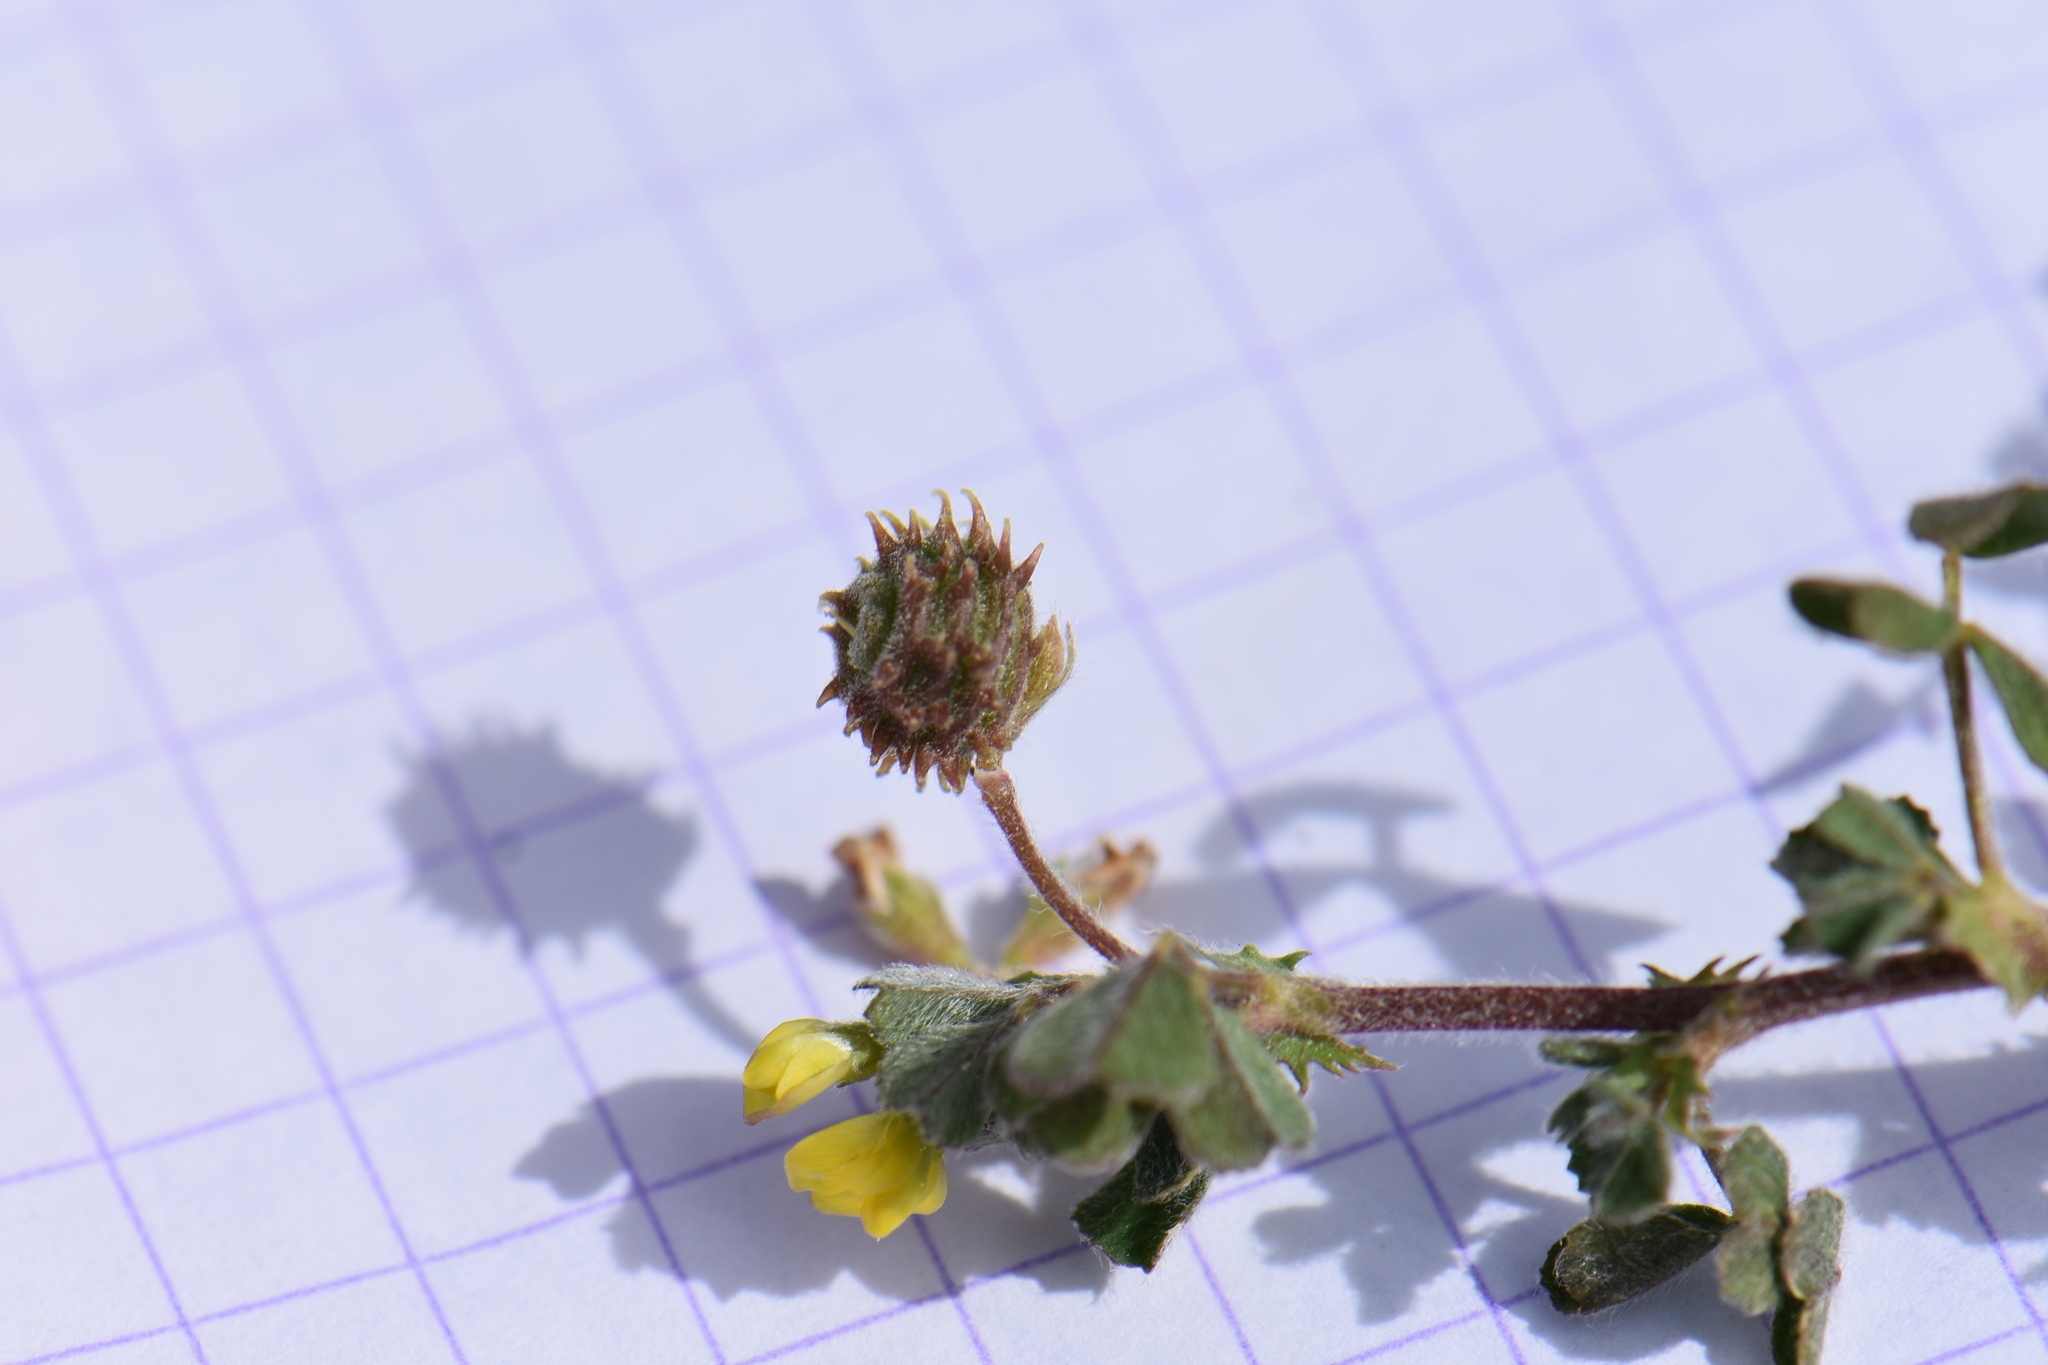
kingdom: Plantae
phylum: Tracheophyta
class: Magnoliopsida
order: Fabales
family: Fabaceae
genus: Medicago
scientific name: Medicago rigidula
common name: Tifton medic
